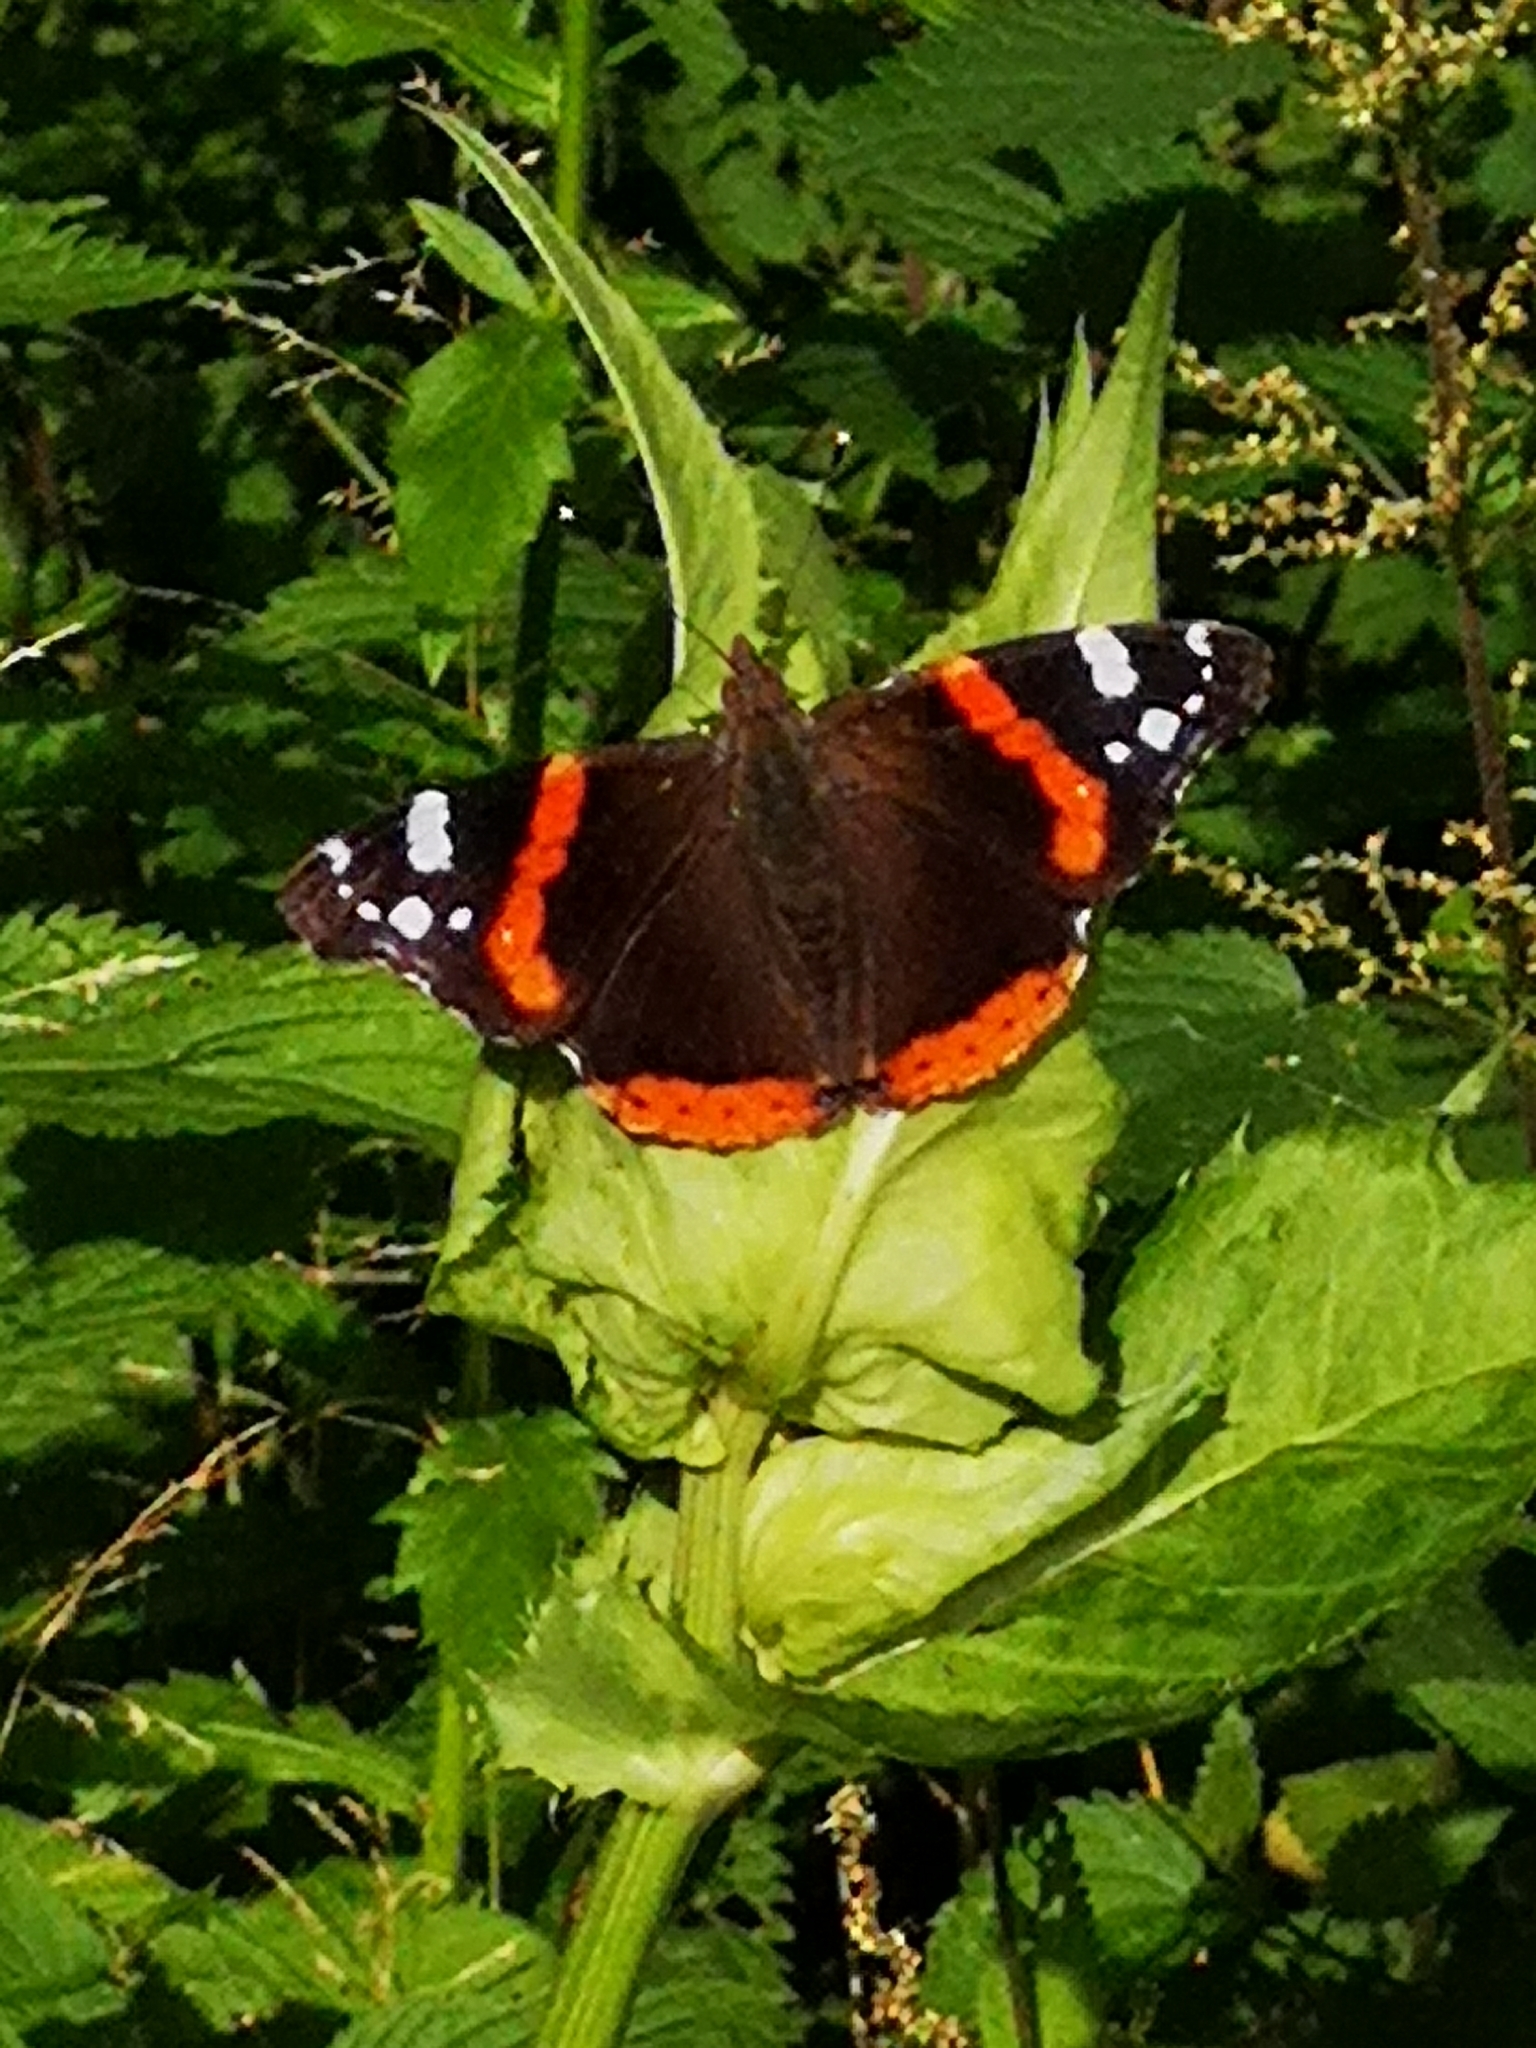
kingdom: Animalia
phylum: Arthropoda
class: Insecta
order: Lepidoptera
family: Nymphalidae
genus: Vanessa
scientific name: Vanessa atalanta
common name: Red admiral
